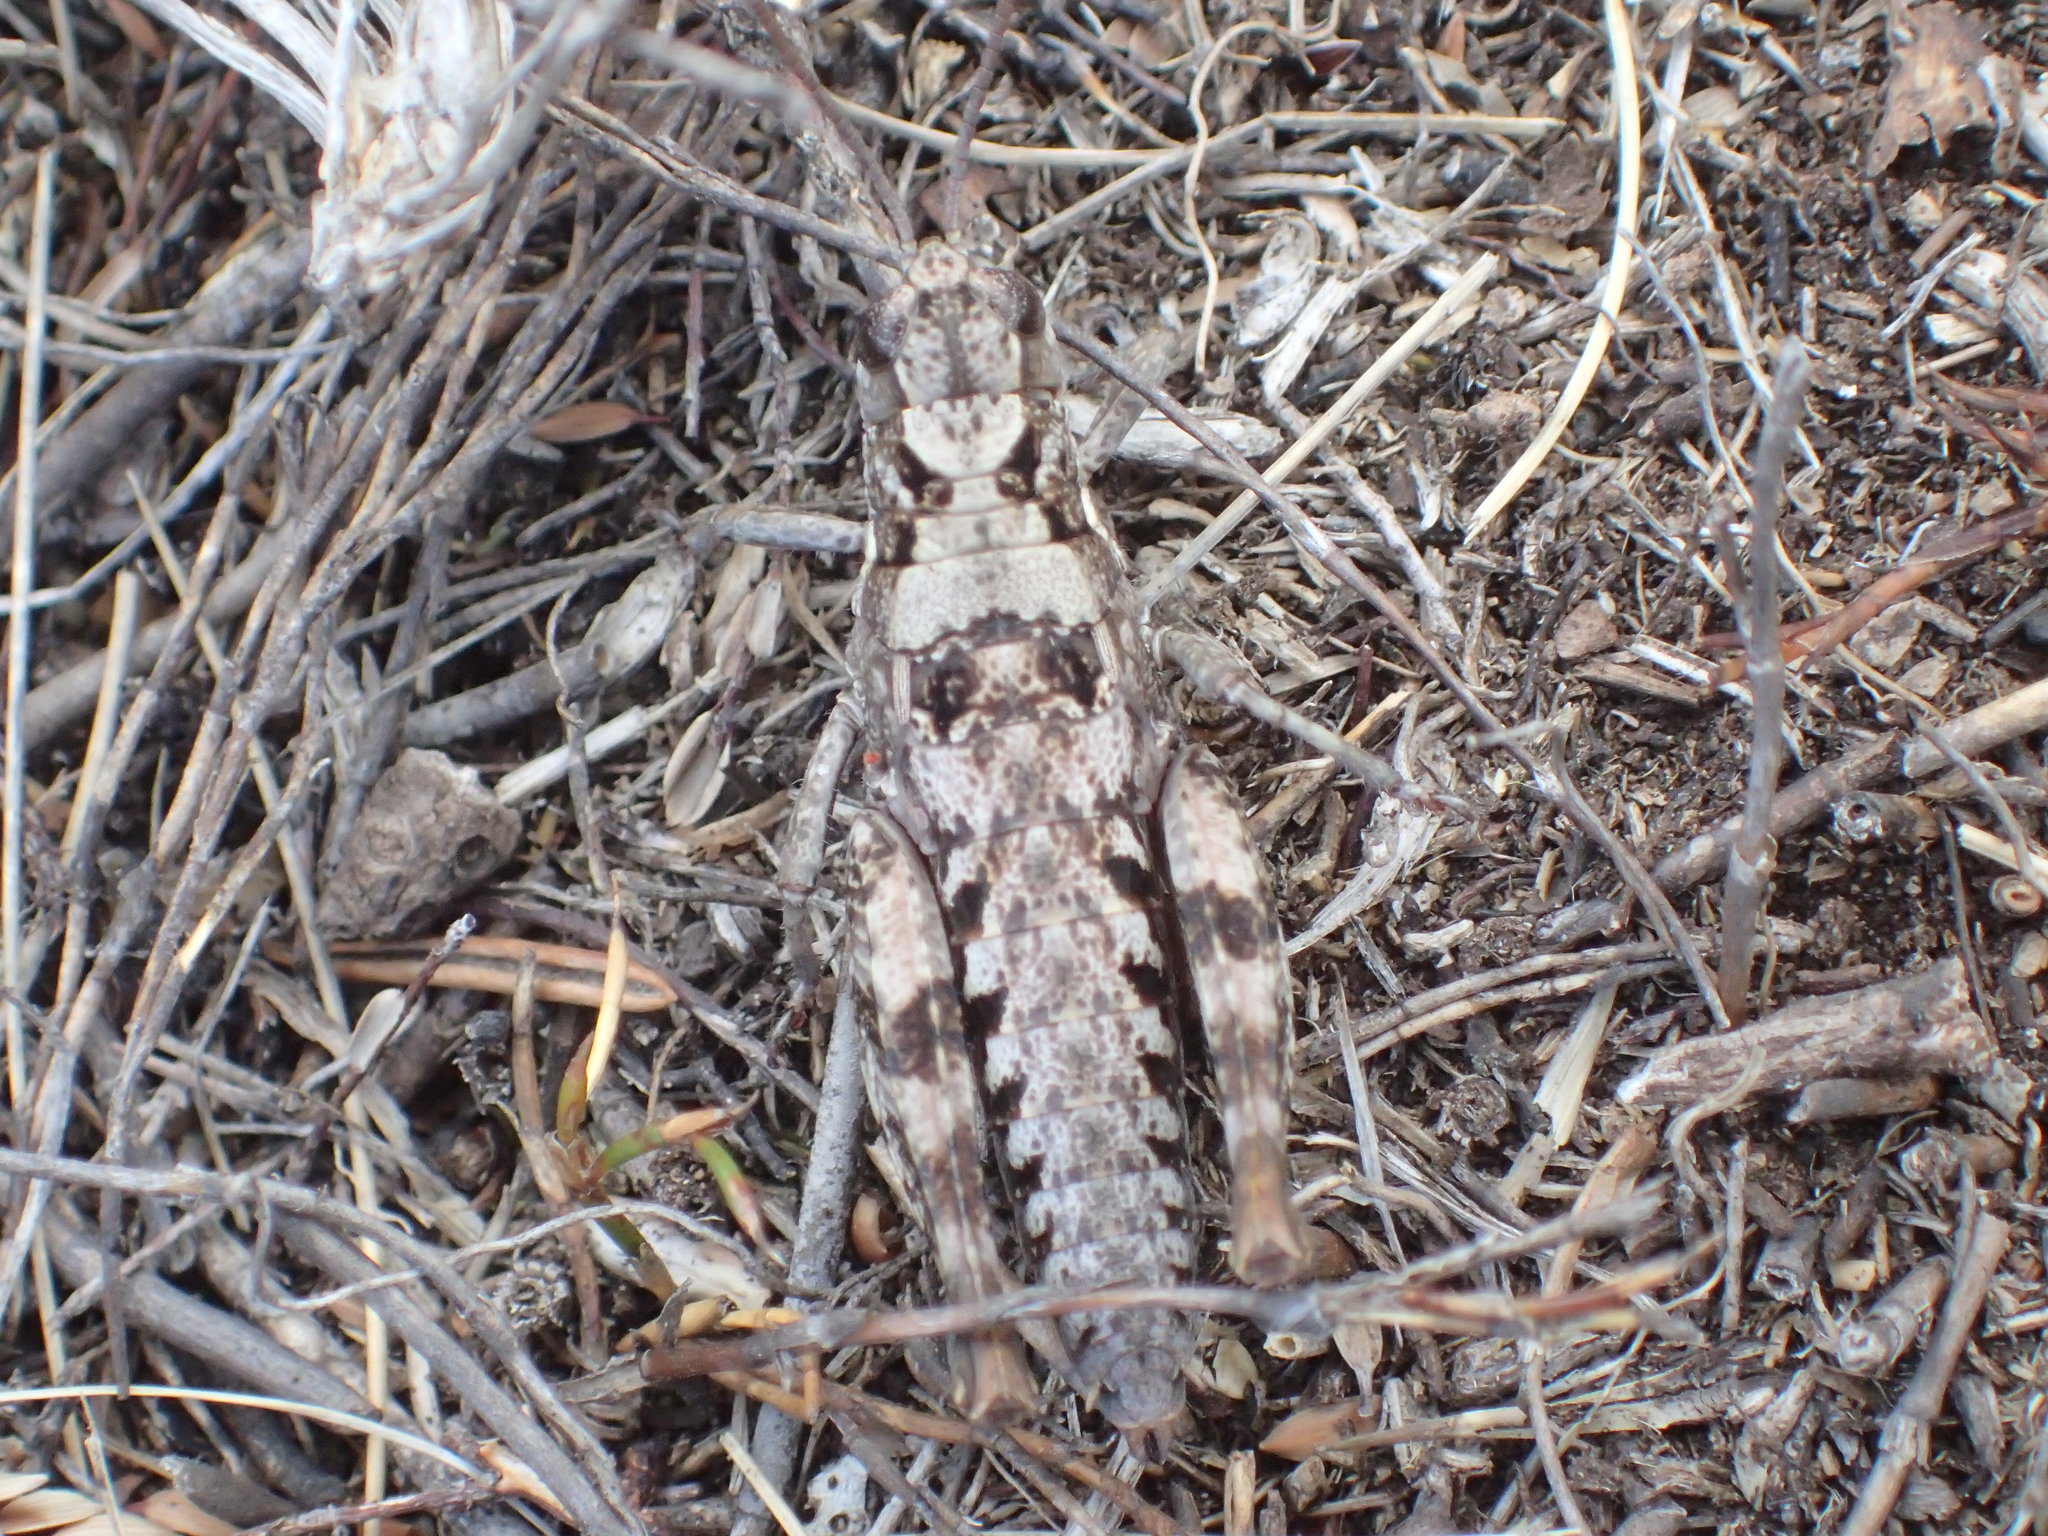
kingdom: Animalia
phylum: Arthropoda
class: Insecta
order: Orthoptera
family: Acrididae
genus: Tasmaniacris
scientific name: Tasmaniacris tasmaniensis
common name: Tasmanian grasshopper
